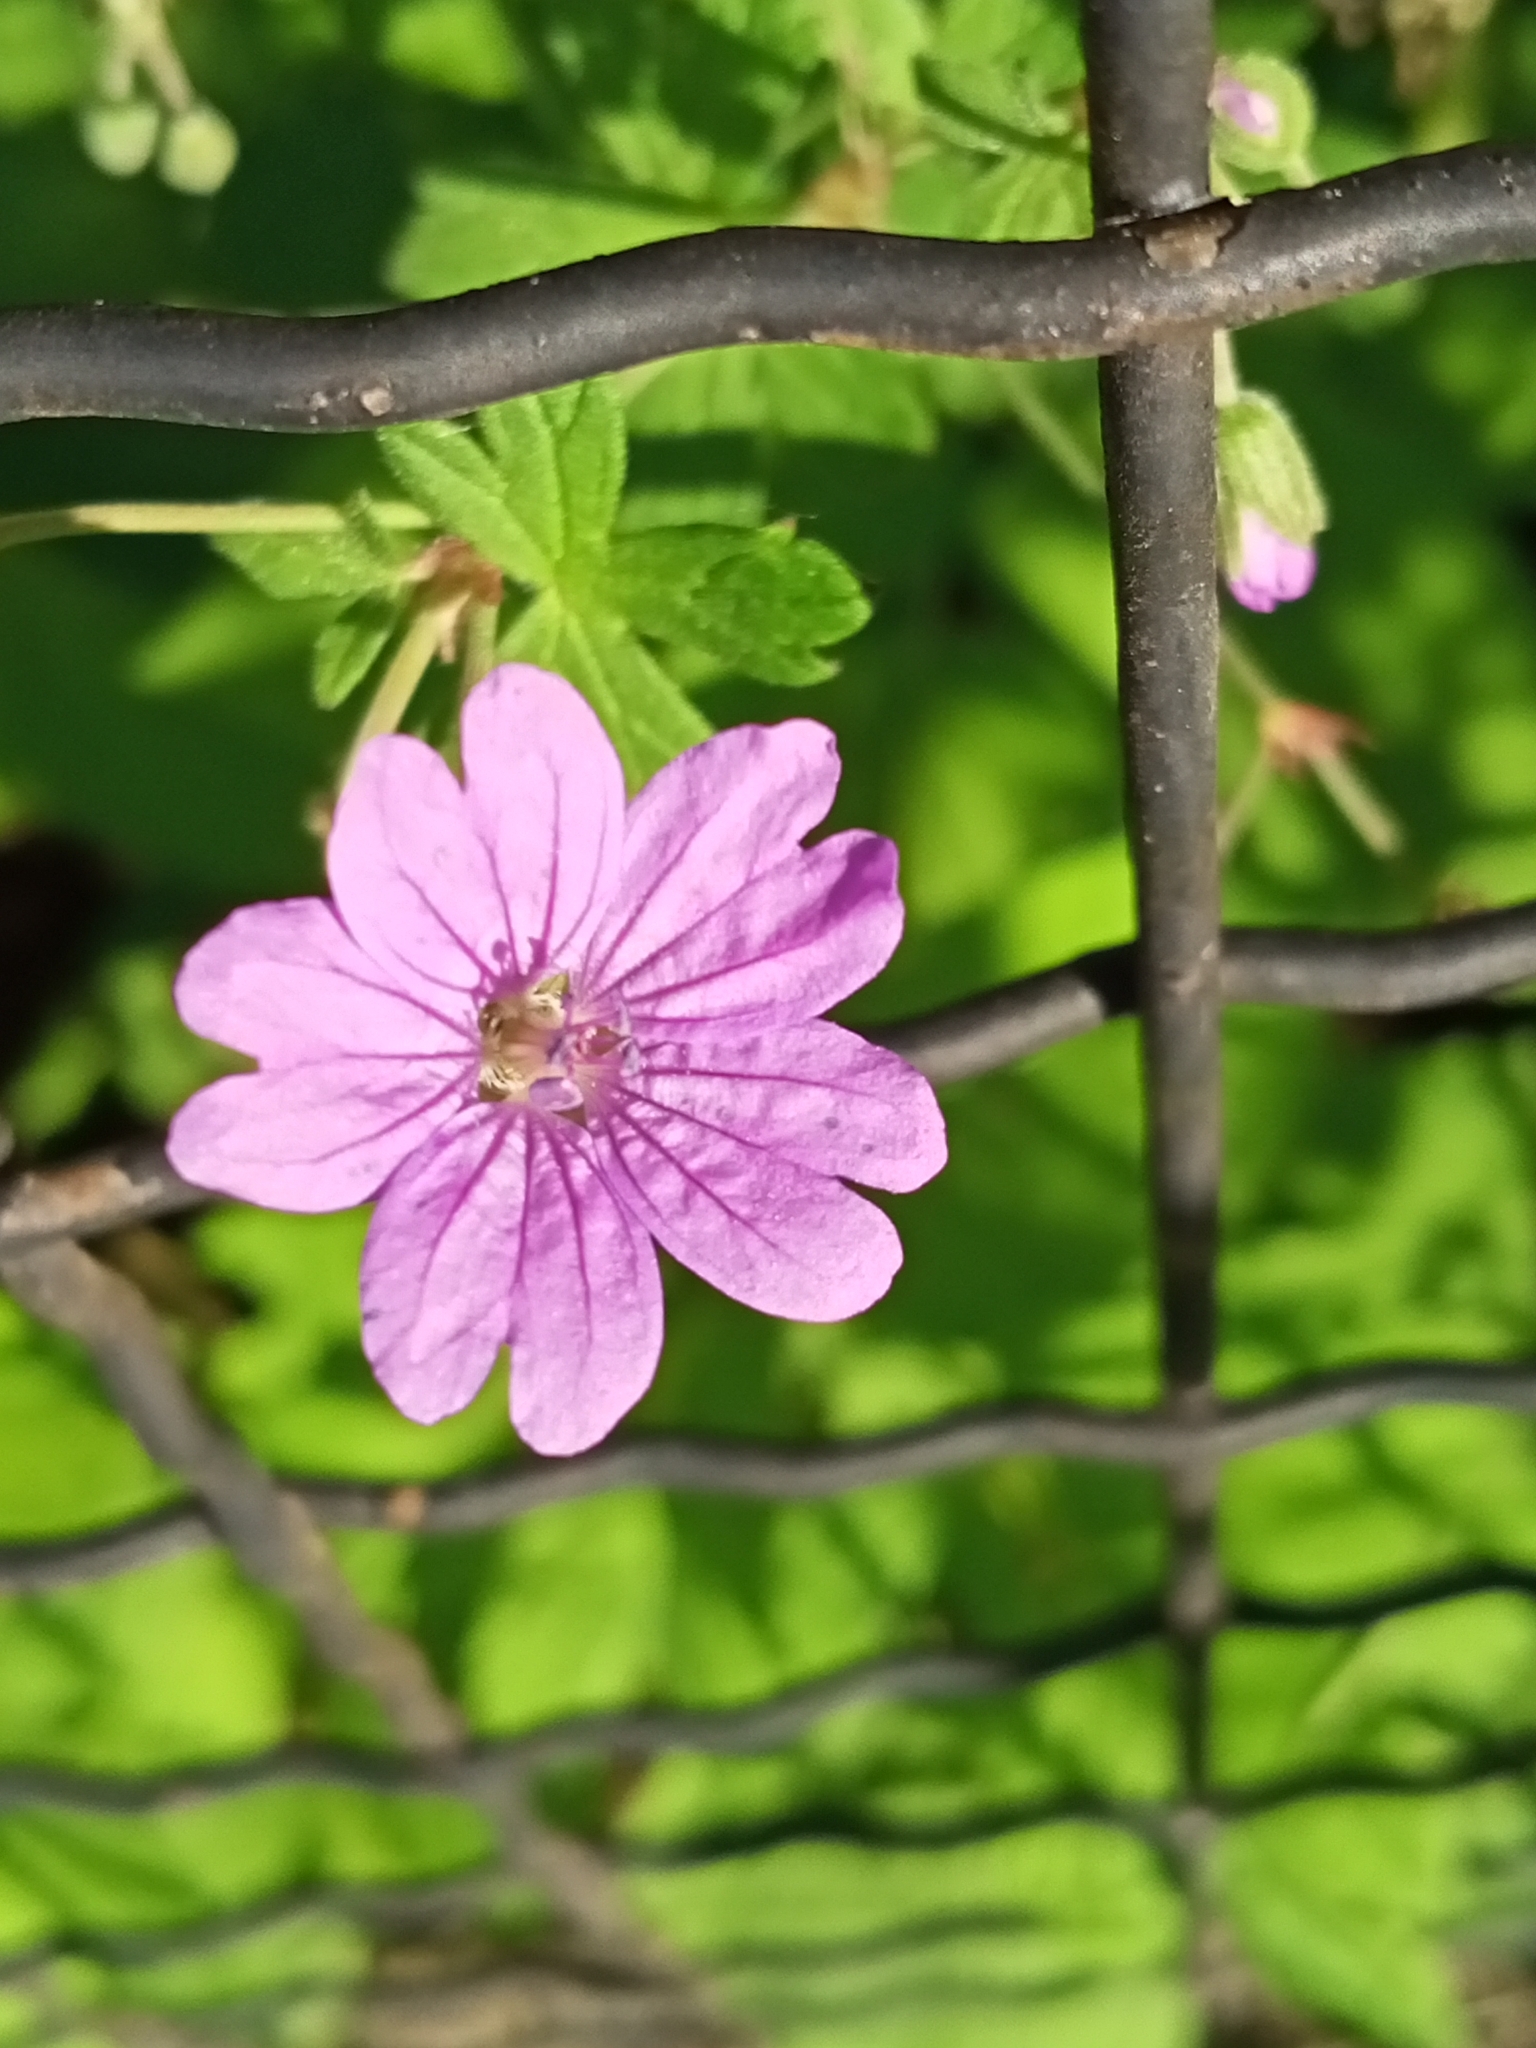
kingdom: Plantae
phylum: Tracheophyta
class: Magnoliopsida
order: Geraniales
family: Geraniaceae
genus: Geranium
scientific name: Geranium pyrenaicum
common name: Hedgerow crane's-bill
